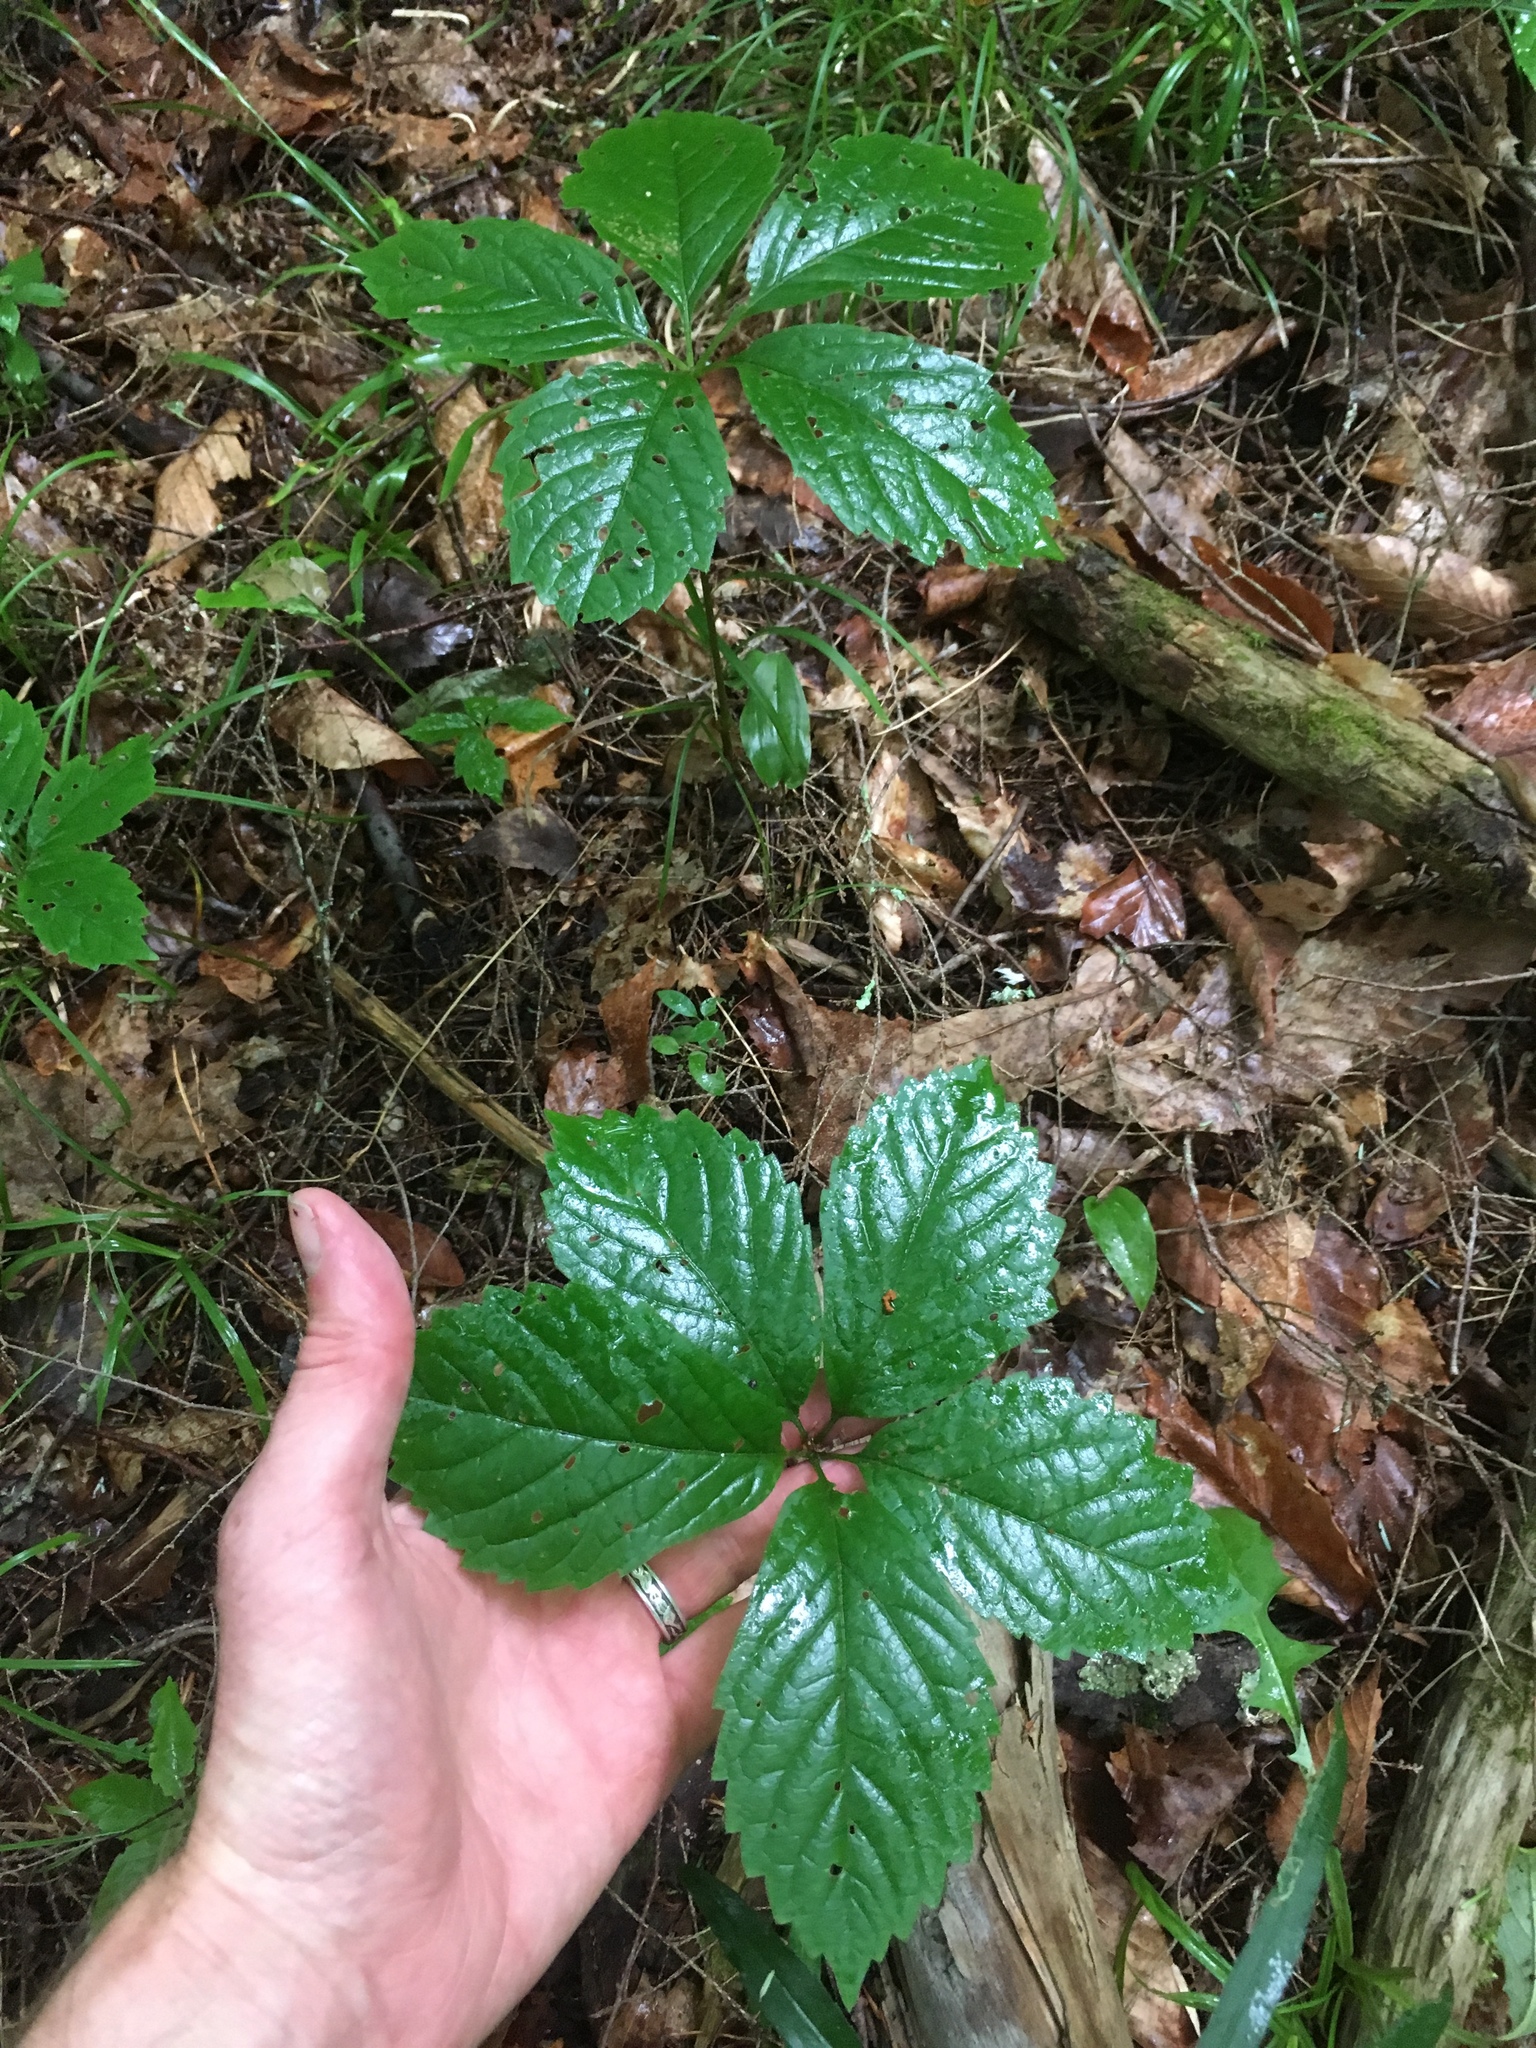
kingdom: Plantae
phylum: Tracheophyta
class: Magnoliopsida
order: Vitales
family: Vitaceae
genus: Parthenocissus
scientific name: Parthenocissus inserta
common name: False virginia-creeper
